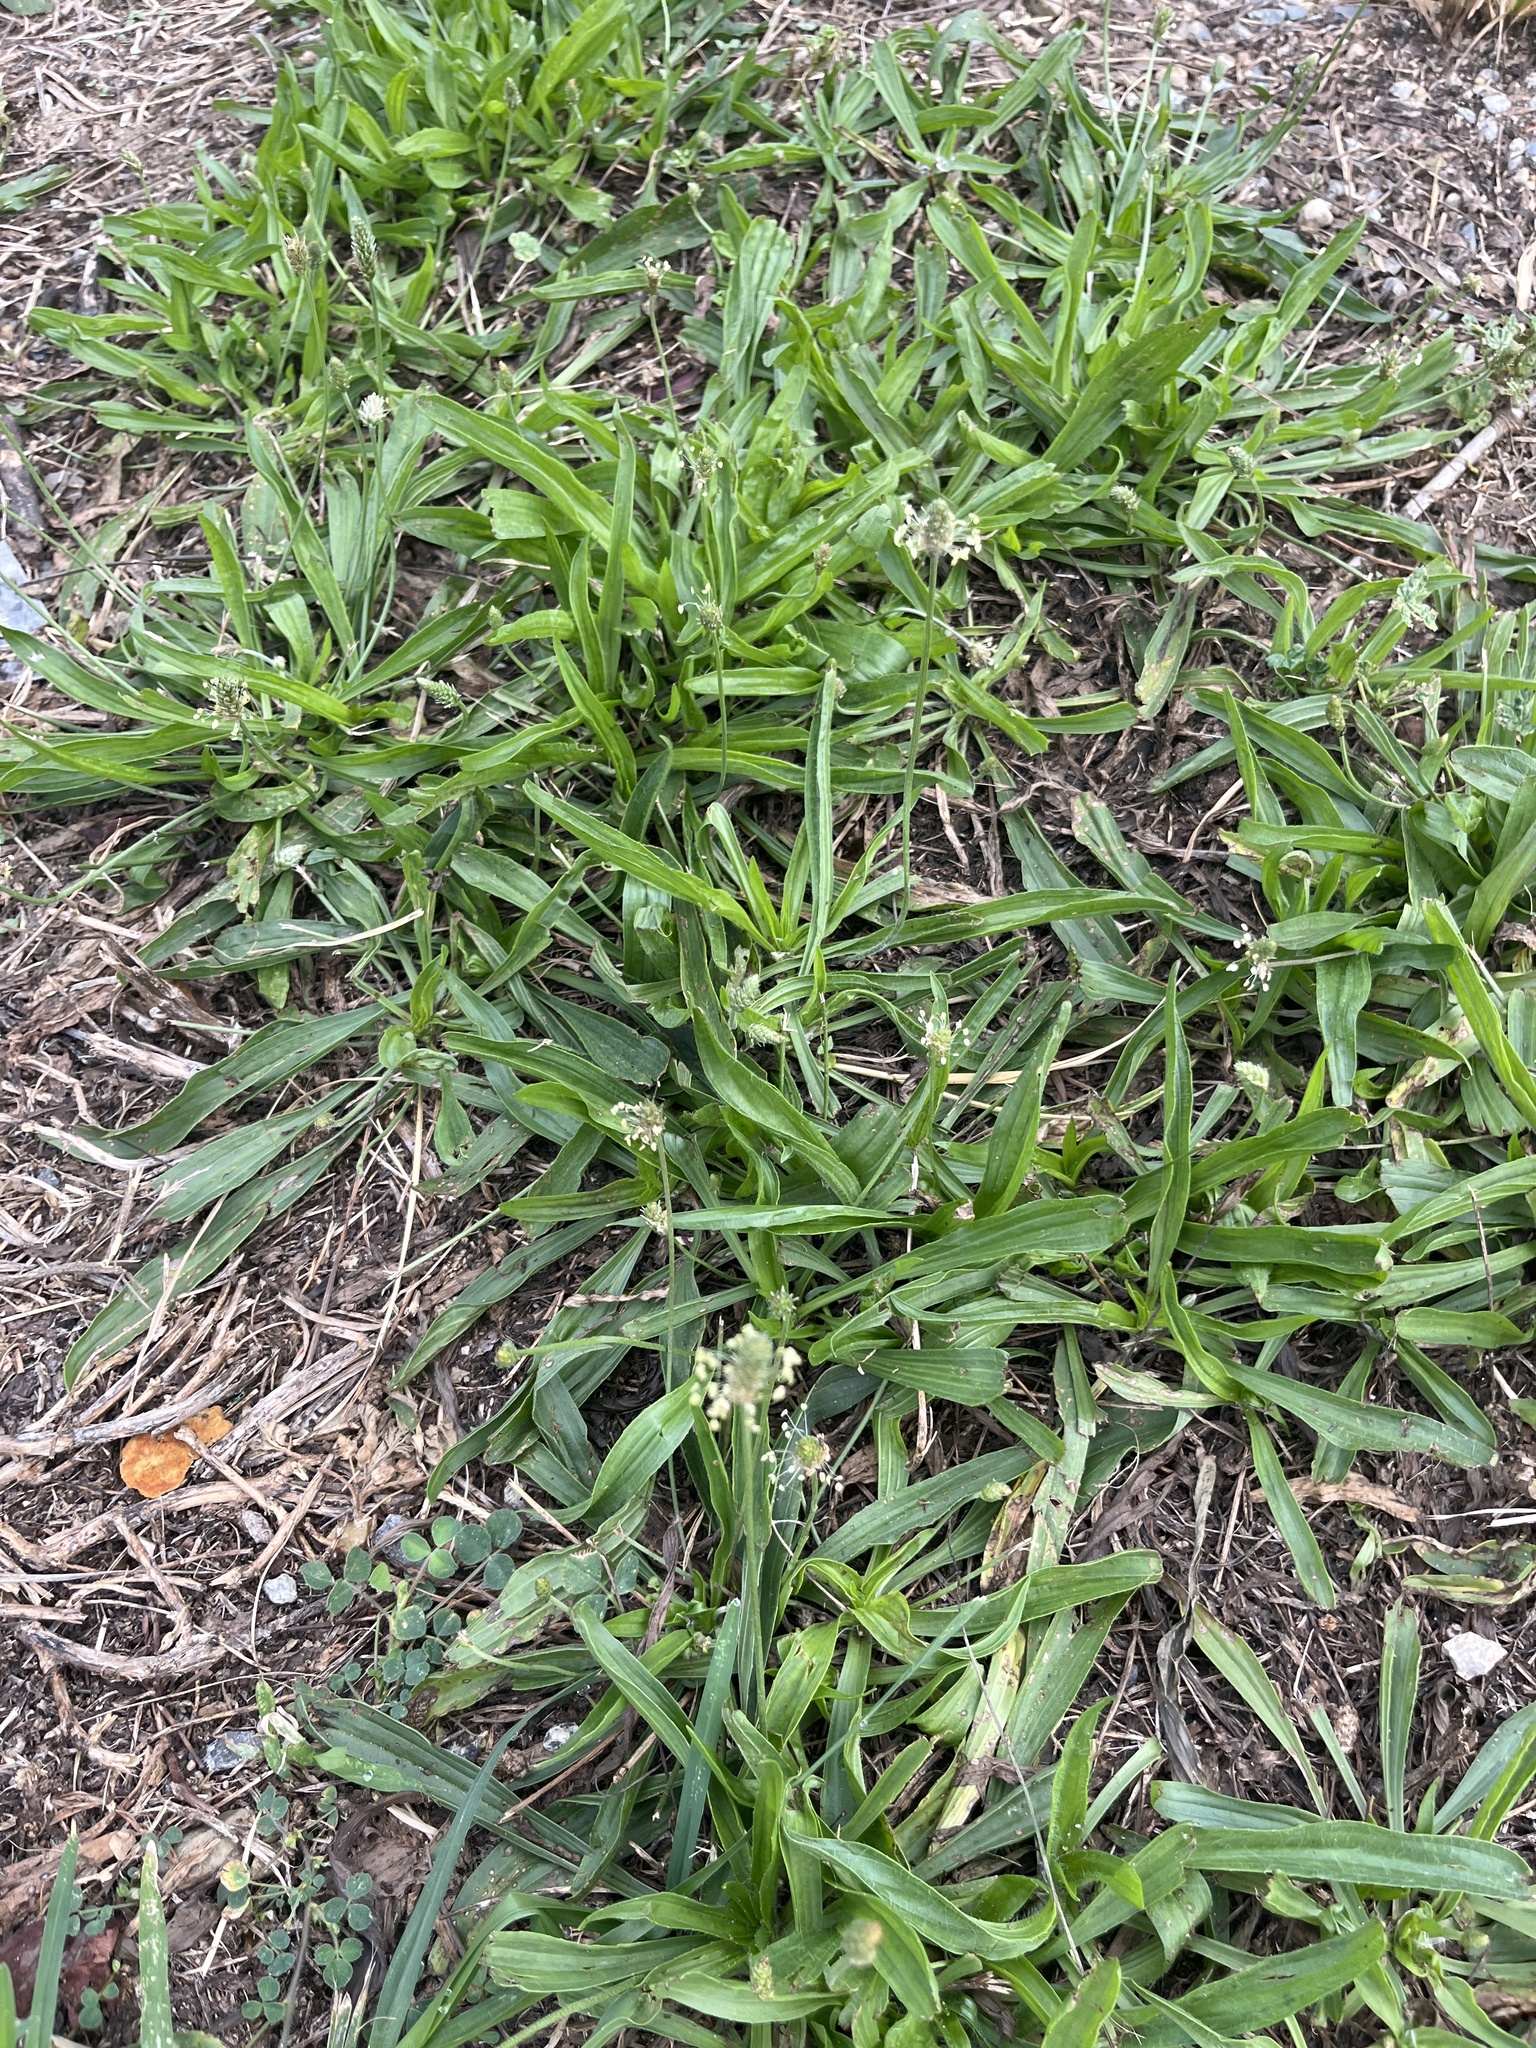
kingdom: Plantae
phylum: Tracheophyta
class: Magnoliopsida
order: Lamiales
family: Plantaginaceae
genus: Plantago
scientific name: Plantago lanceolata
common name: Ribwort plantain
